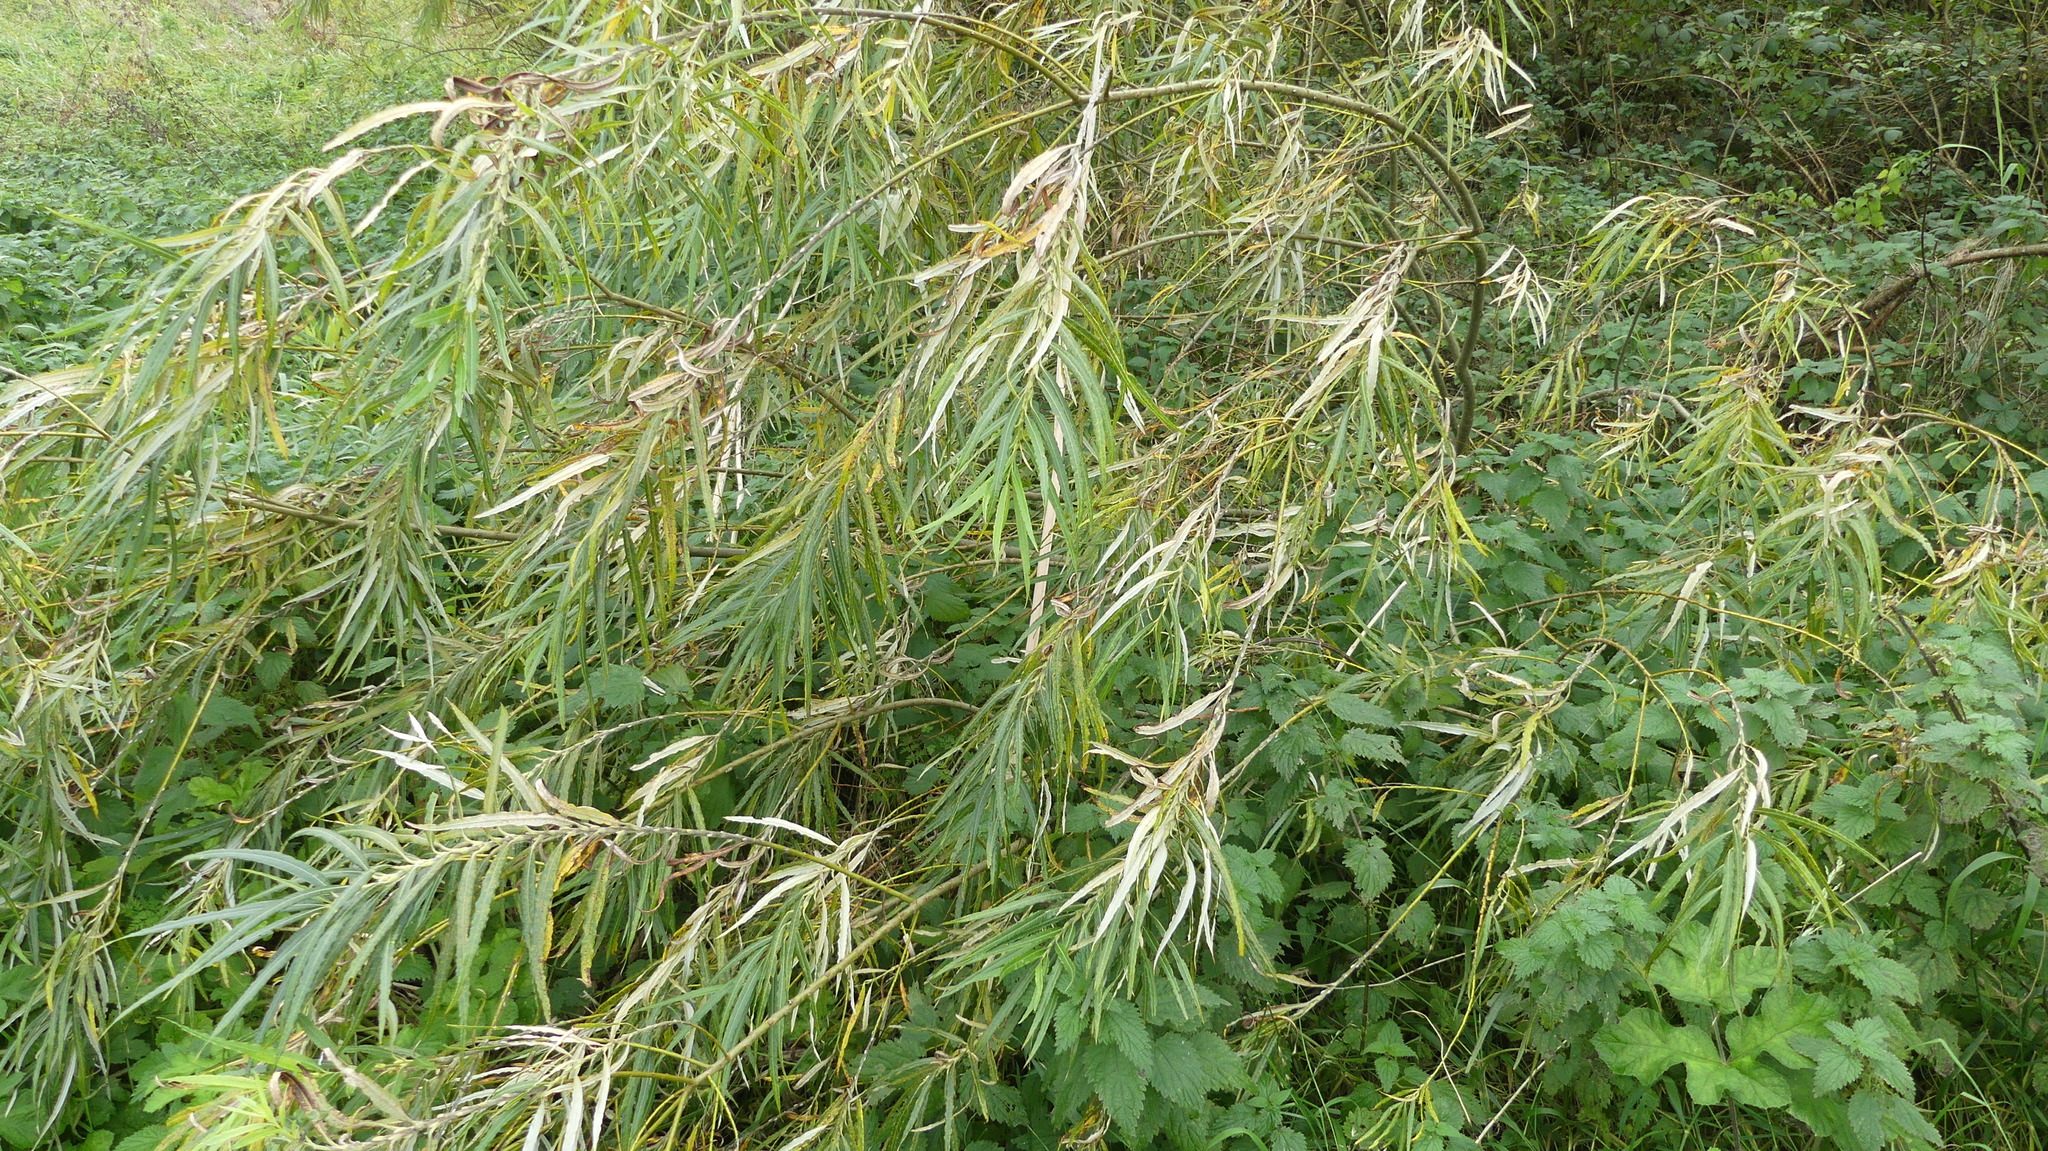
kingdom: Plantae
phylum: Tracheophyta
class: Magnoliopsida
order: Malpighiales
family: Salicaceae
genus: Salix
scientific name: Salix viminalis
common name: Osier
